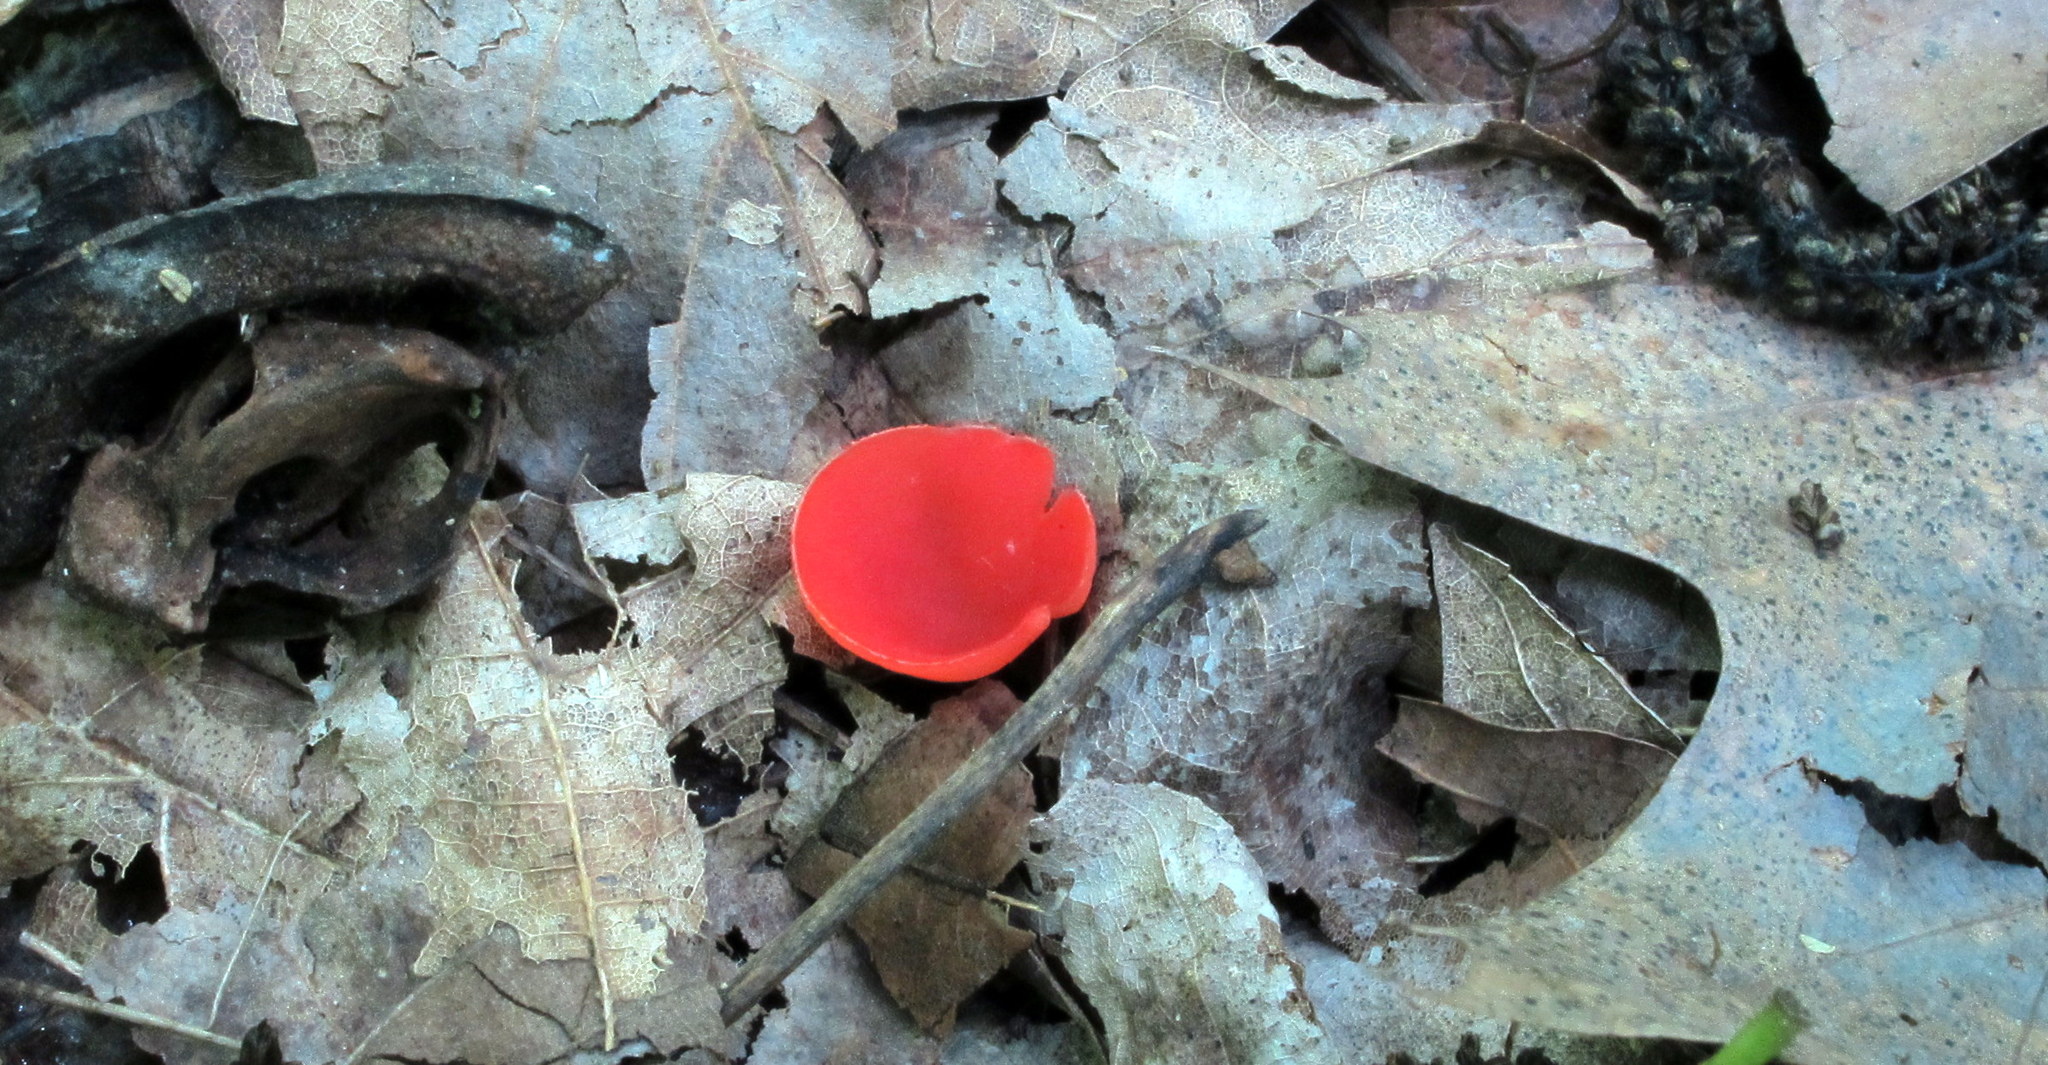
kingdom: Fungi
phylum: Ascomycota
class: Pezizomycetes
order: Pezizales
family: Sarcoscyphaceae
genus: Sarcoscypha
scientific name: Sarcoscypha occidentalis
